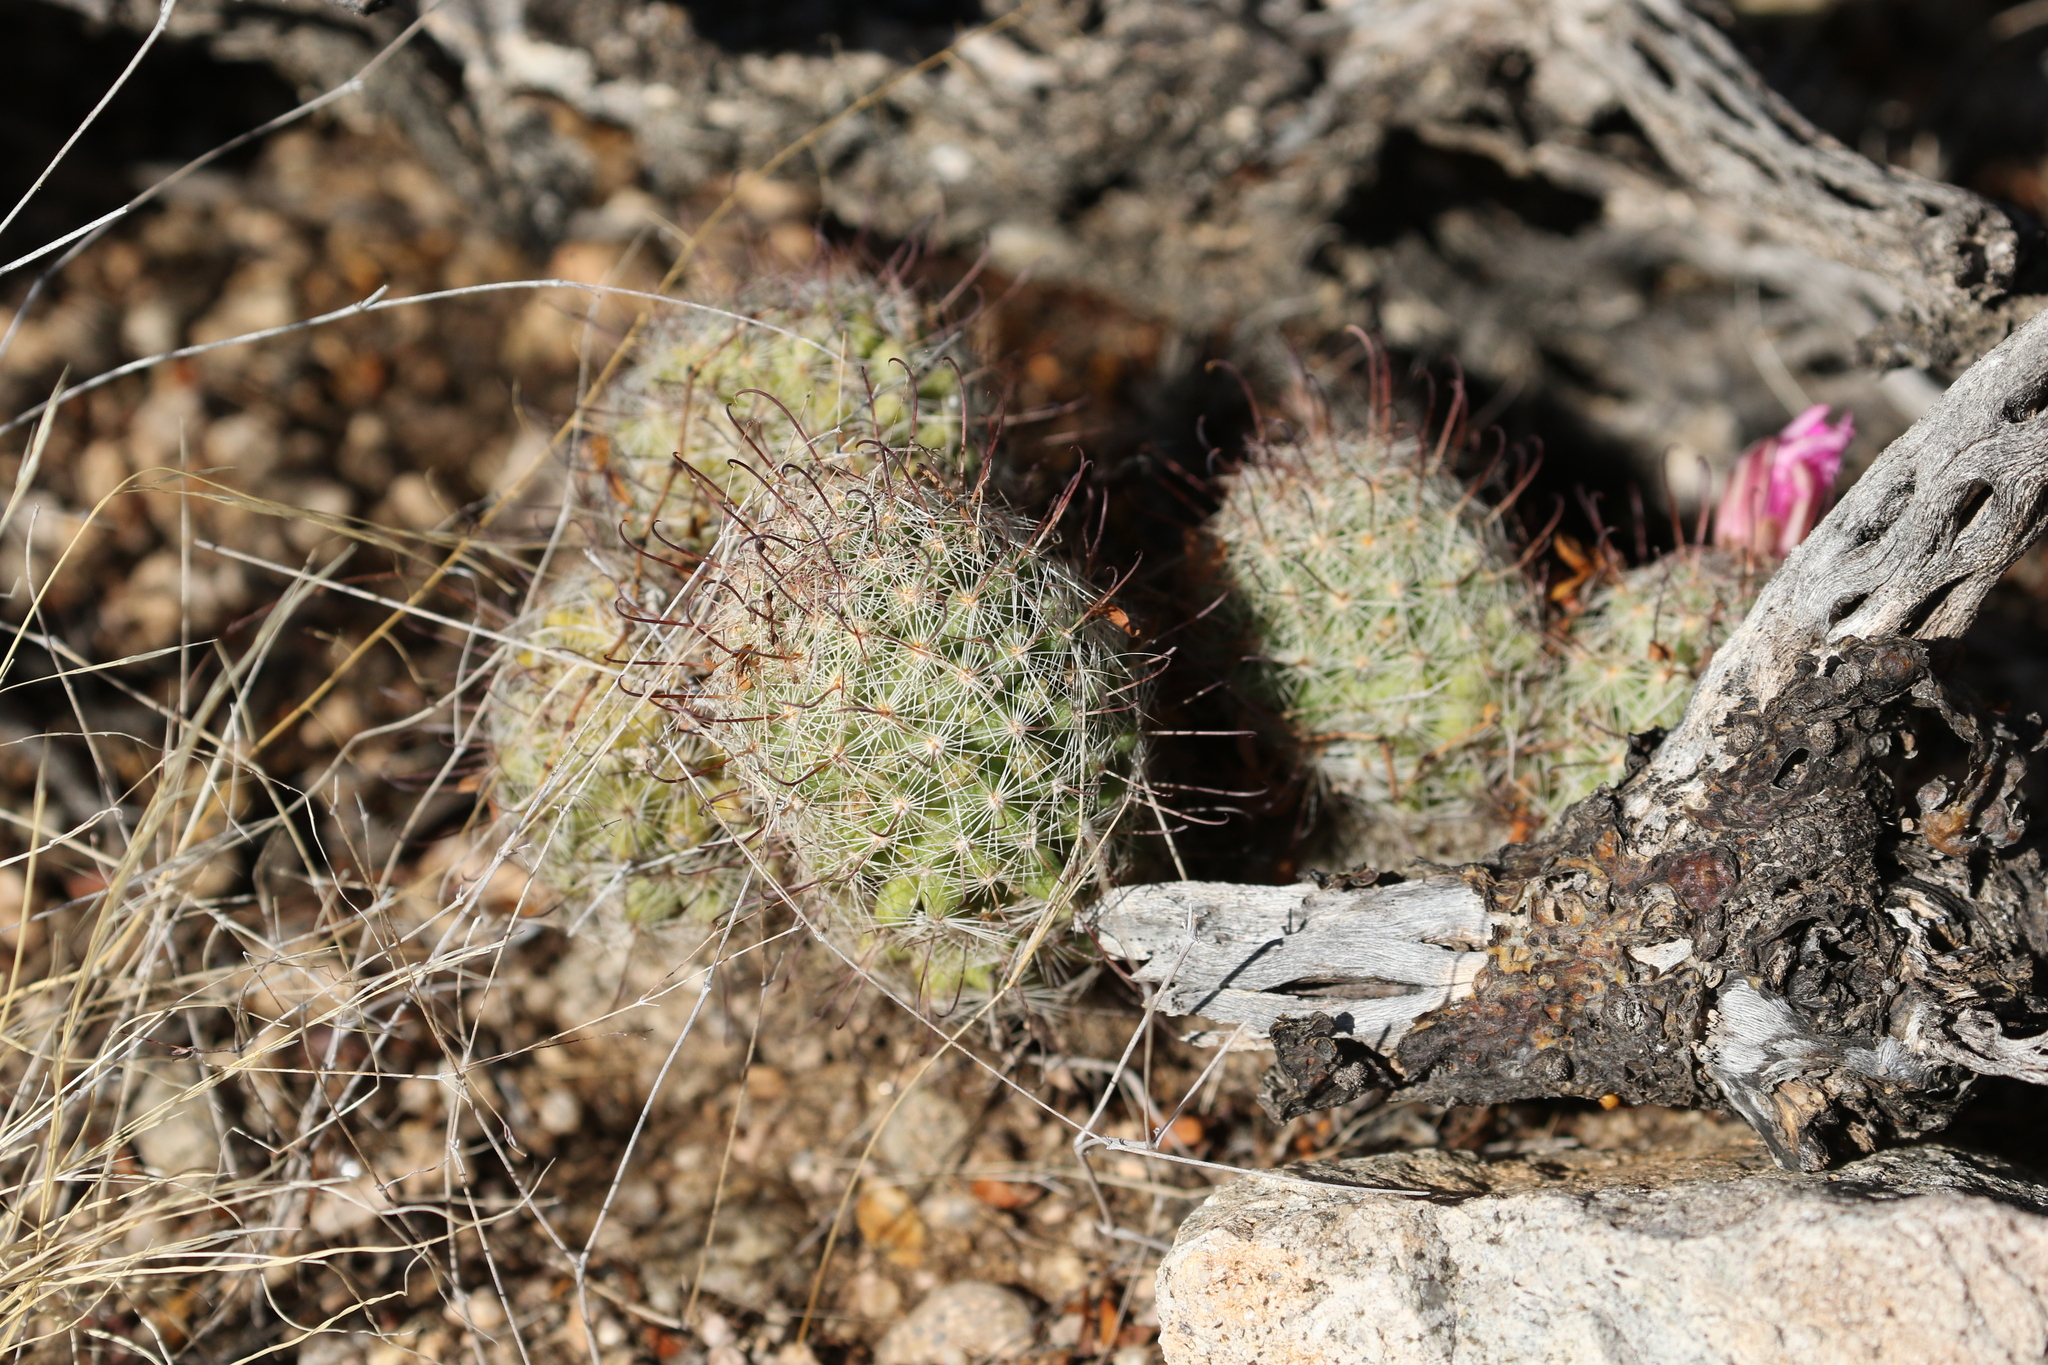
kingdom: Plantae
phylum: Tracheophyta
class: Magnoliopsida
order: Caryophyllales
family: Cactaceae
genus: Cochemiea
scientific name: Cochemiea grahamii
